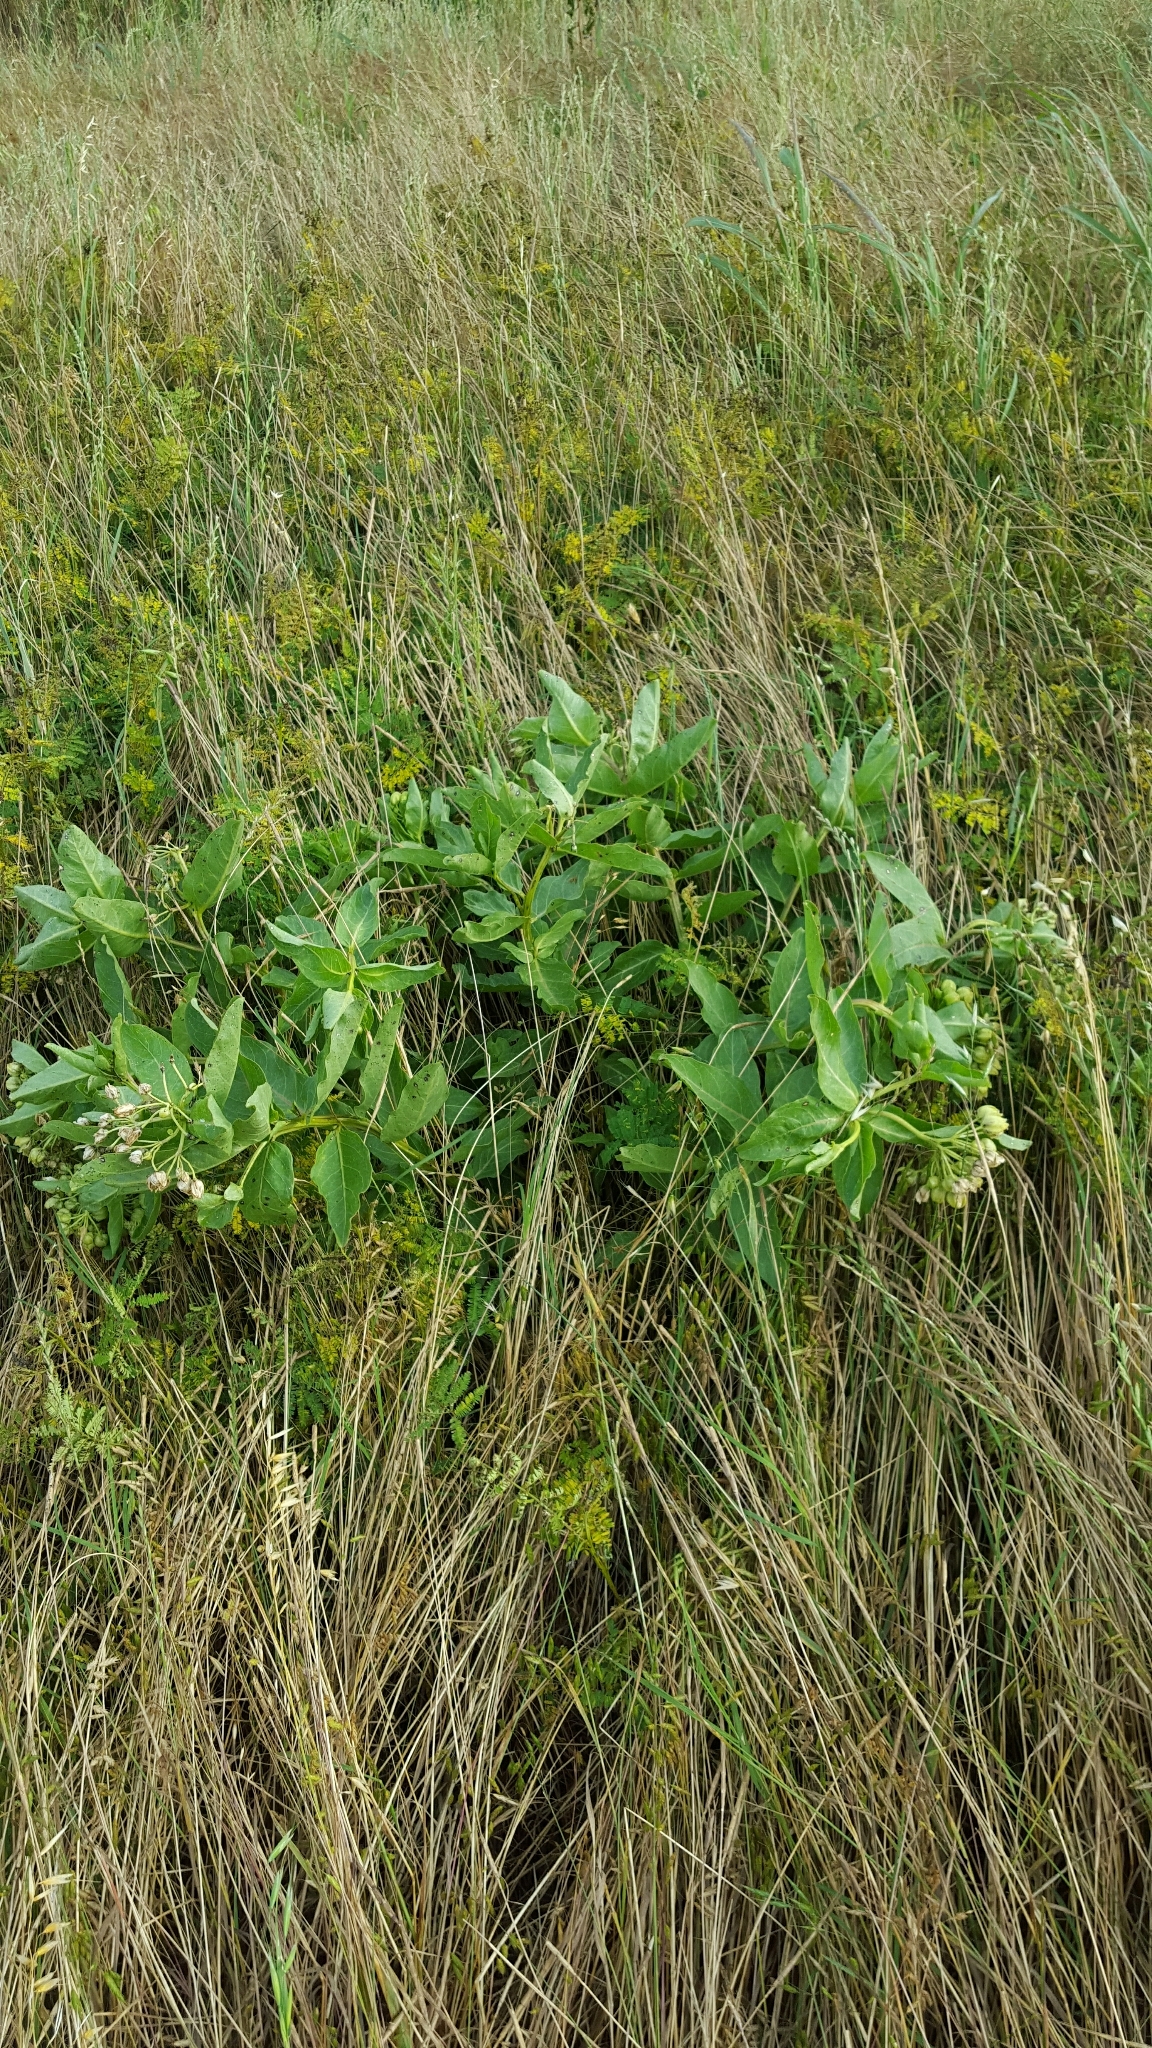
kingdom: Plantae
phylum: Tracheophyta
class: Magnoliopsida
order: Gentianales
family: Apocynaceae
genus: Asclepias
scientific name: Asclepias viridis
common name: Antelope-horns
